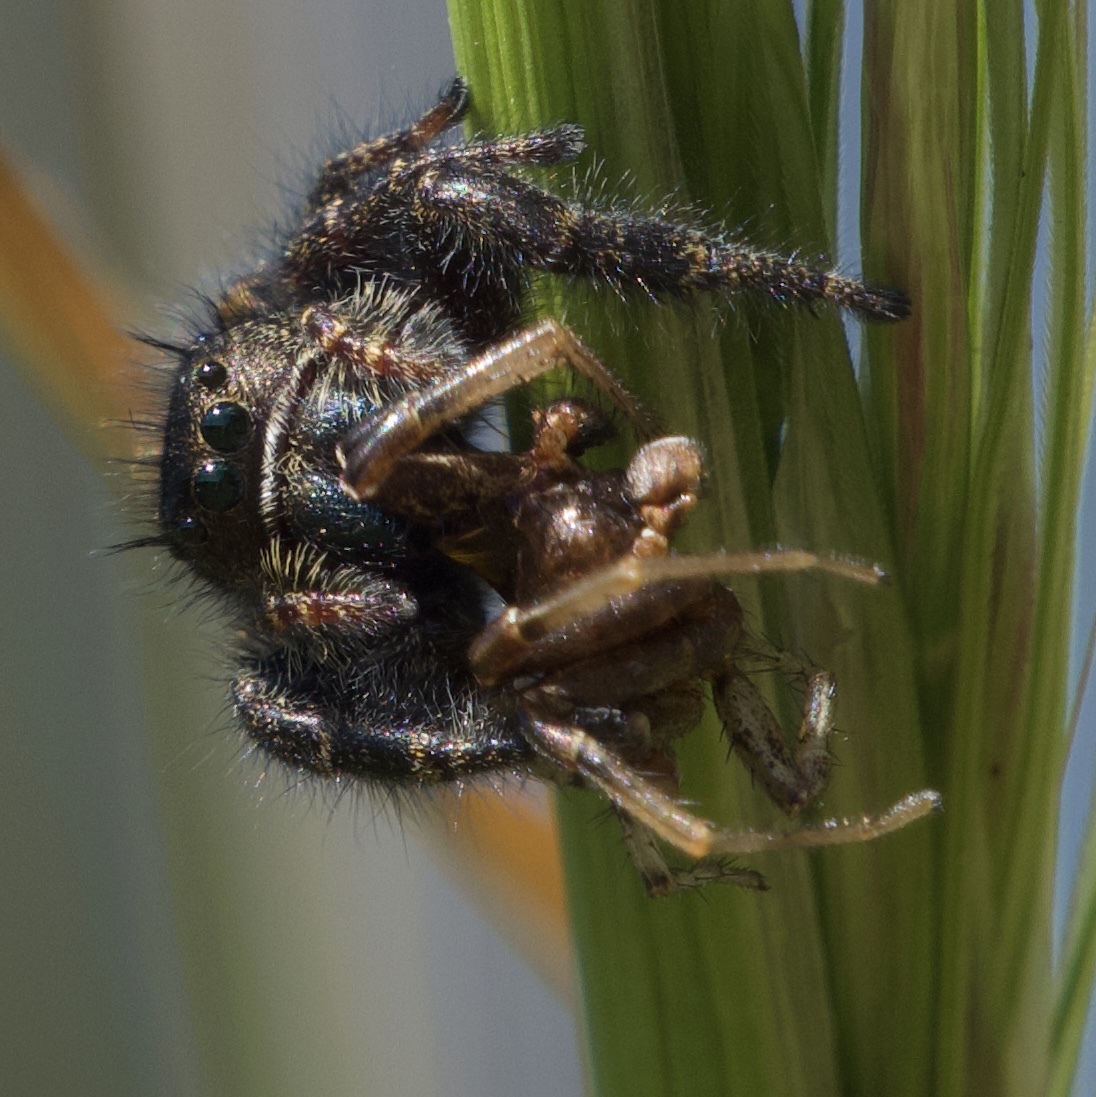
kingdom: Animalia
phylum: Arthropoda
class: Arachnida
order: Araneae
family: Salticidae
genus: Phidippus
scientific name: Phidippus johnsoni
